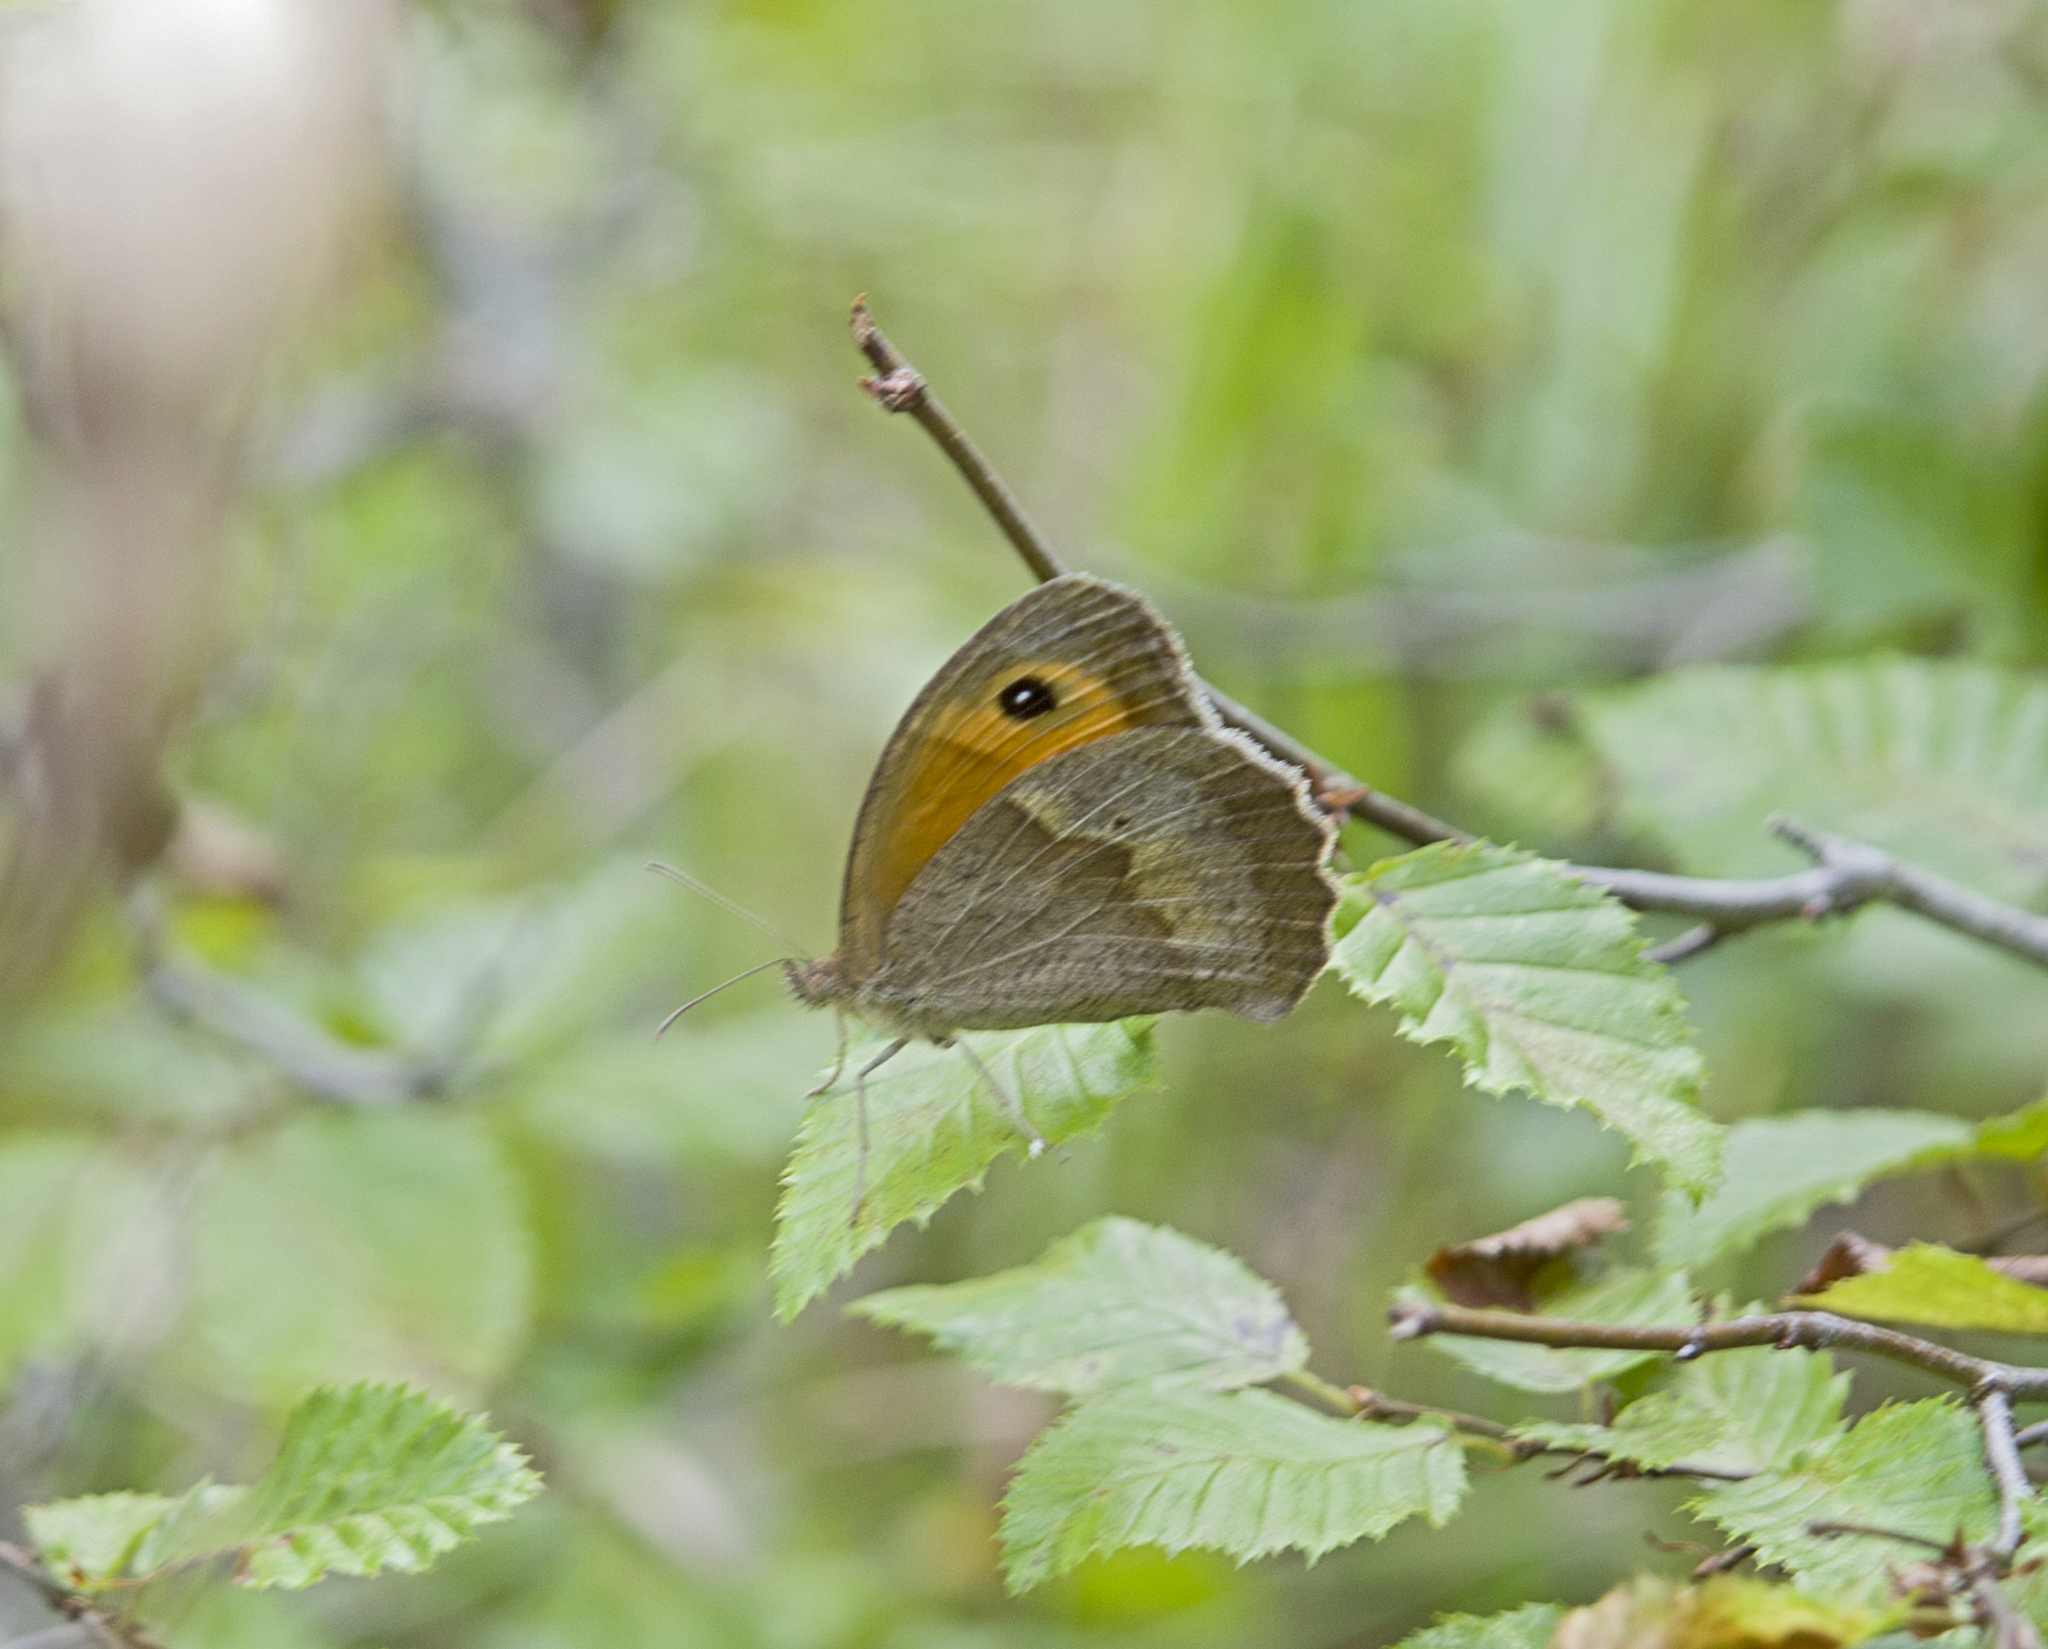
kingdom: Animalia
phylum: Arthropoda
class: Insecta
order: Lepidoptera
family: Nymphalidae
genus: Maniola
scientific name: Maniola jurtina
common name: Meadow brown
